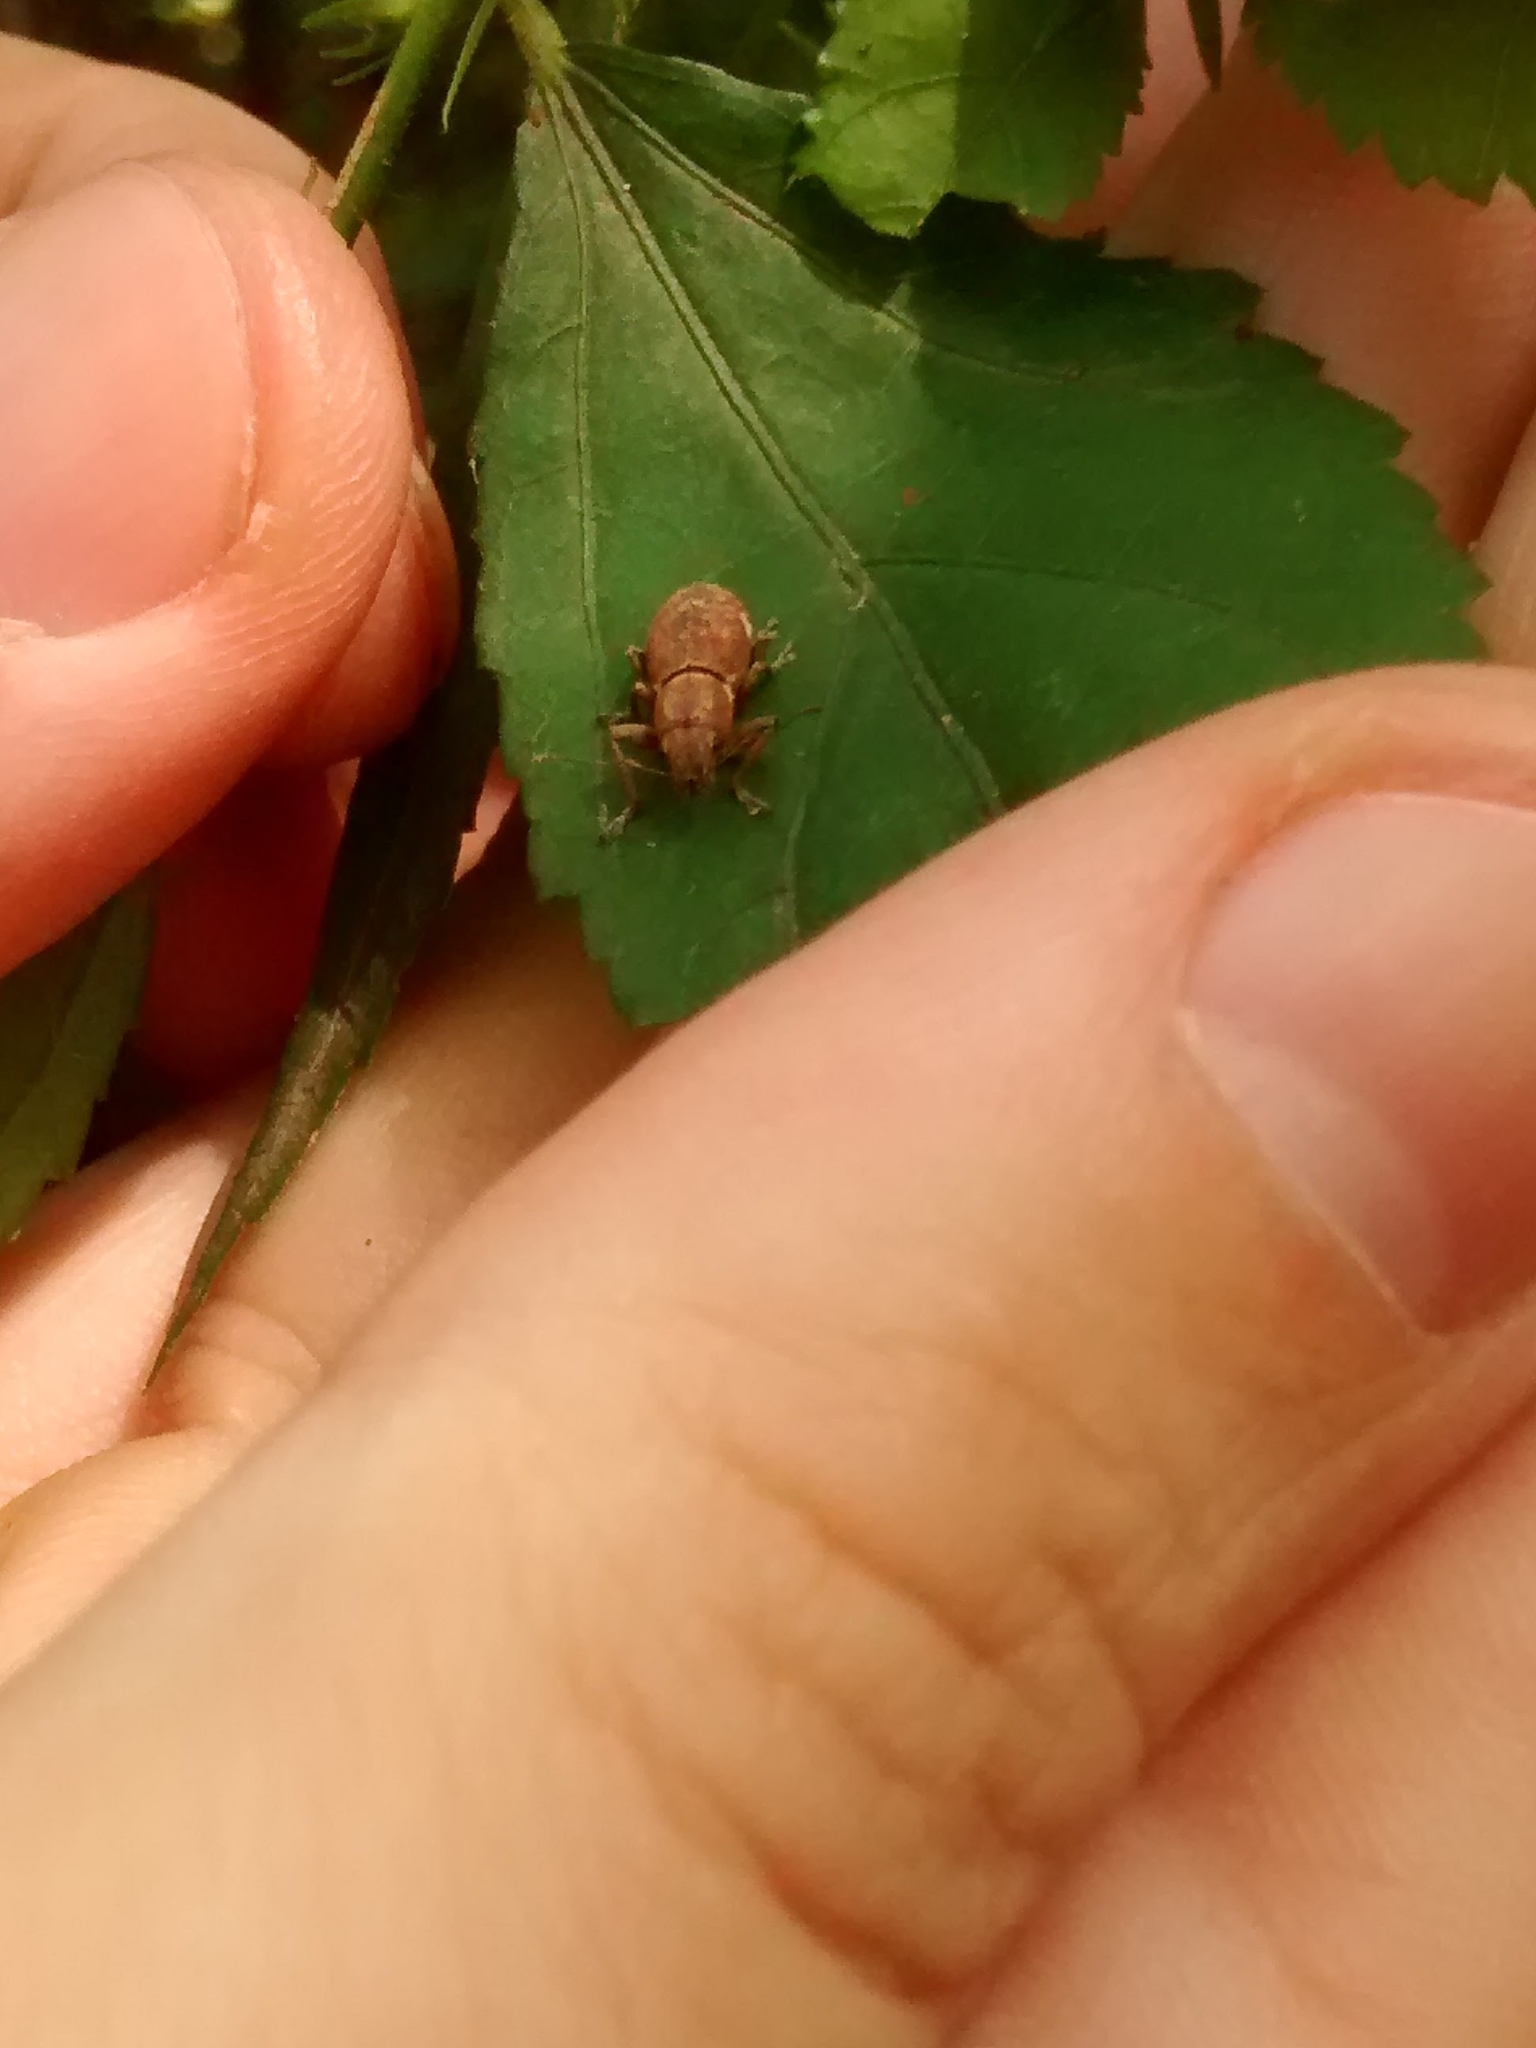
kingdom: Animalia
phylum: Arthropoda
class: Insecta
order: Coleoptera
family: Curculionidae
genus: Naupactus
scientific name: Naupactus cervinus
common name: Fuller rose beetle
